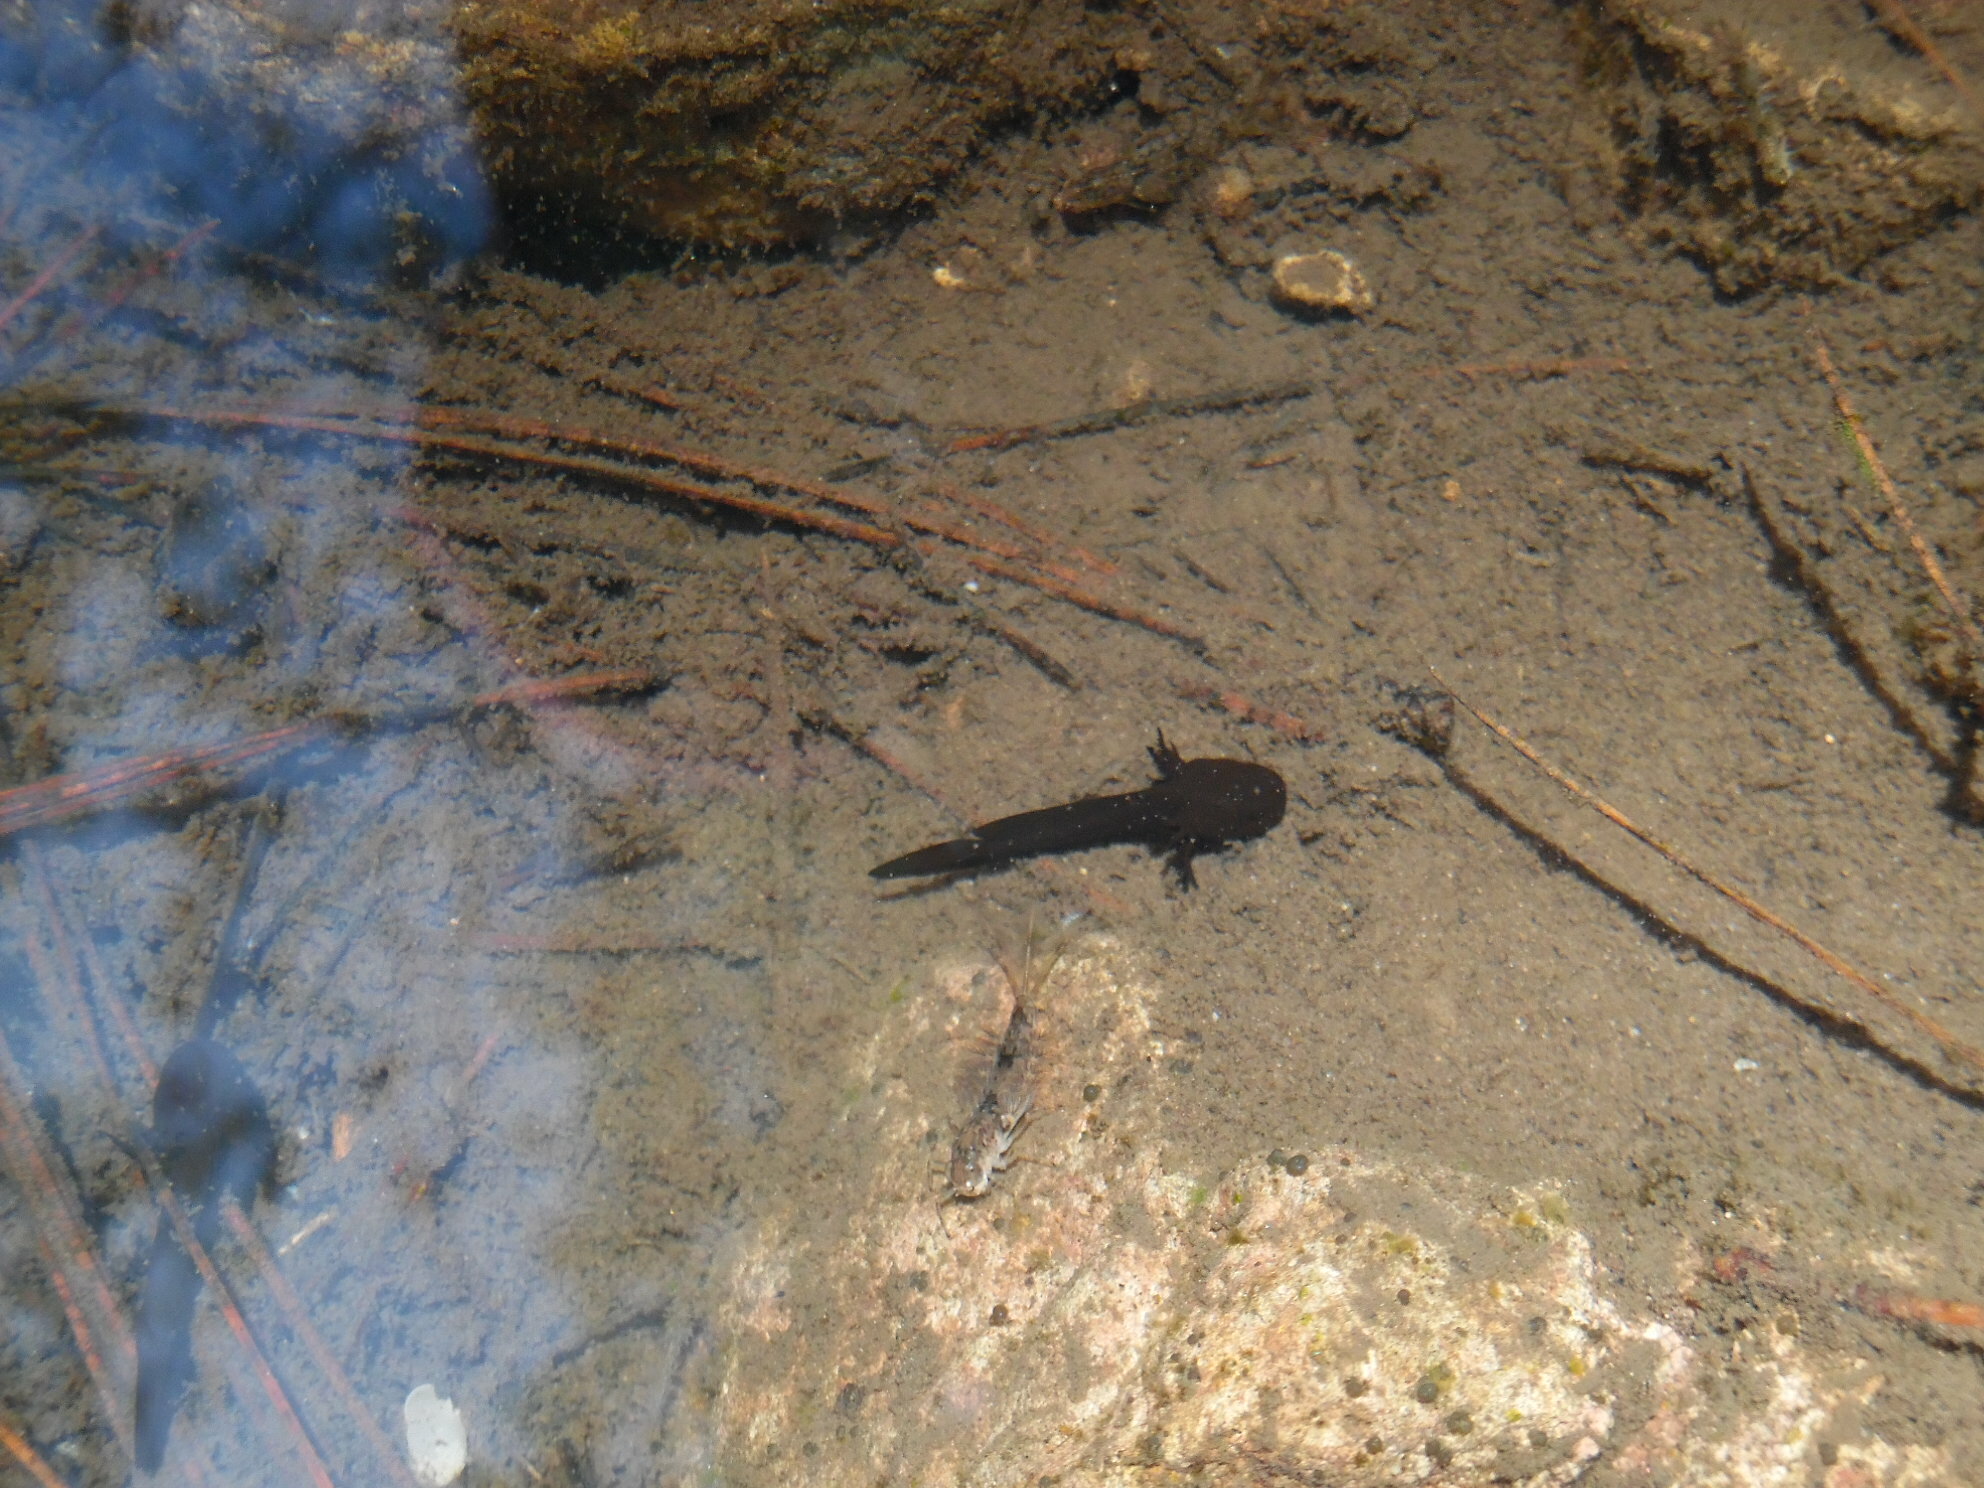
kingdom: Animalia
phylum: Chordata
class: Amphibia
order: Caudata
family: Ambystomatidae
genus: Ambystoma
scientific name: Ambystoma rosaceum
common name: Tarahumara salamander
